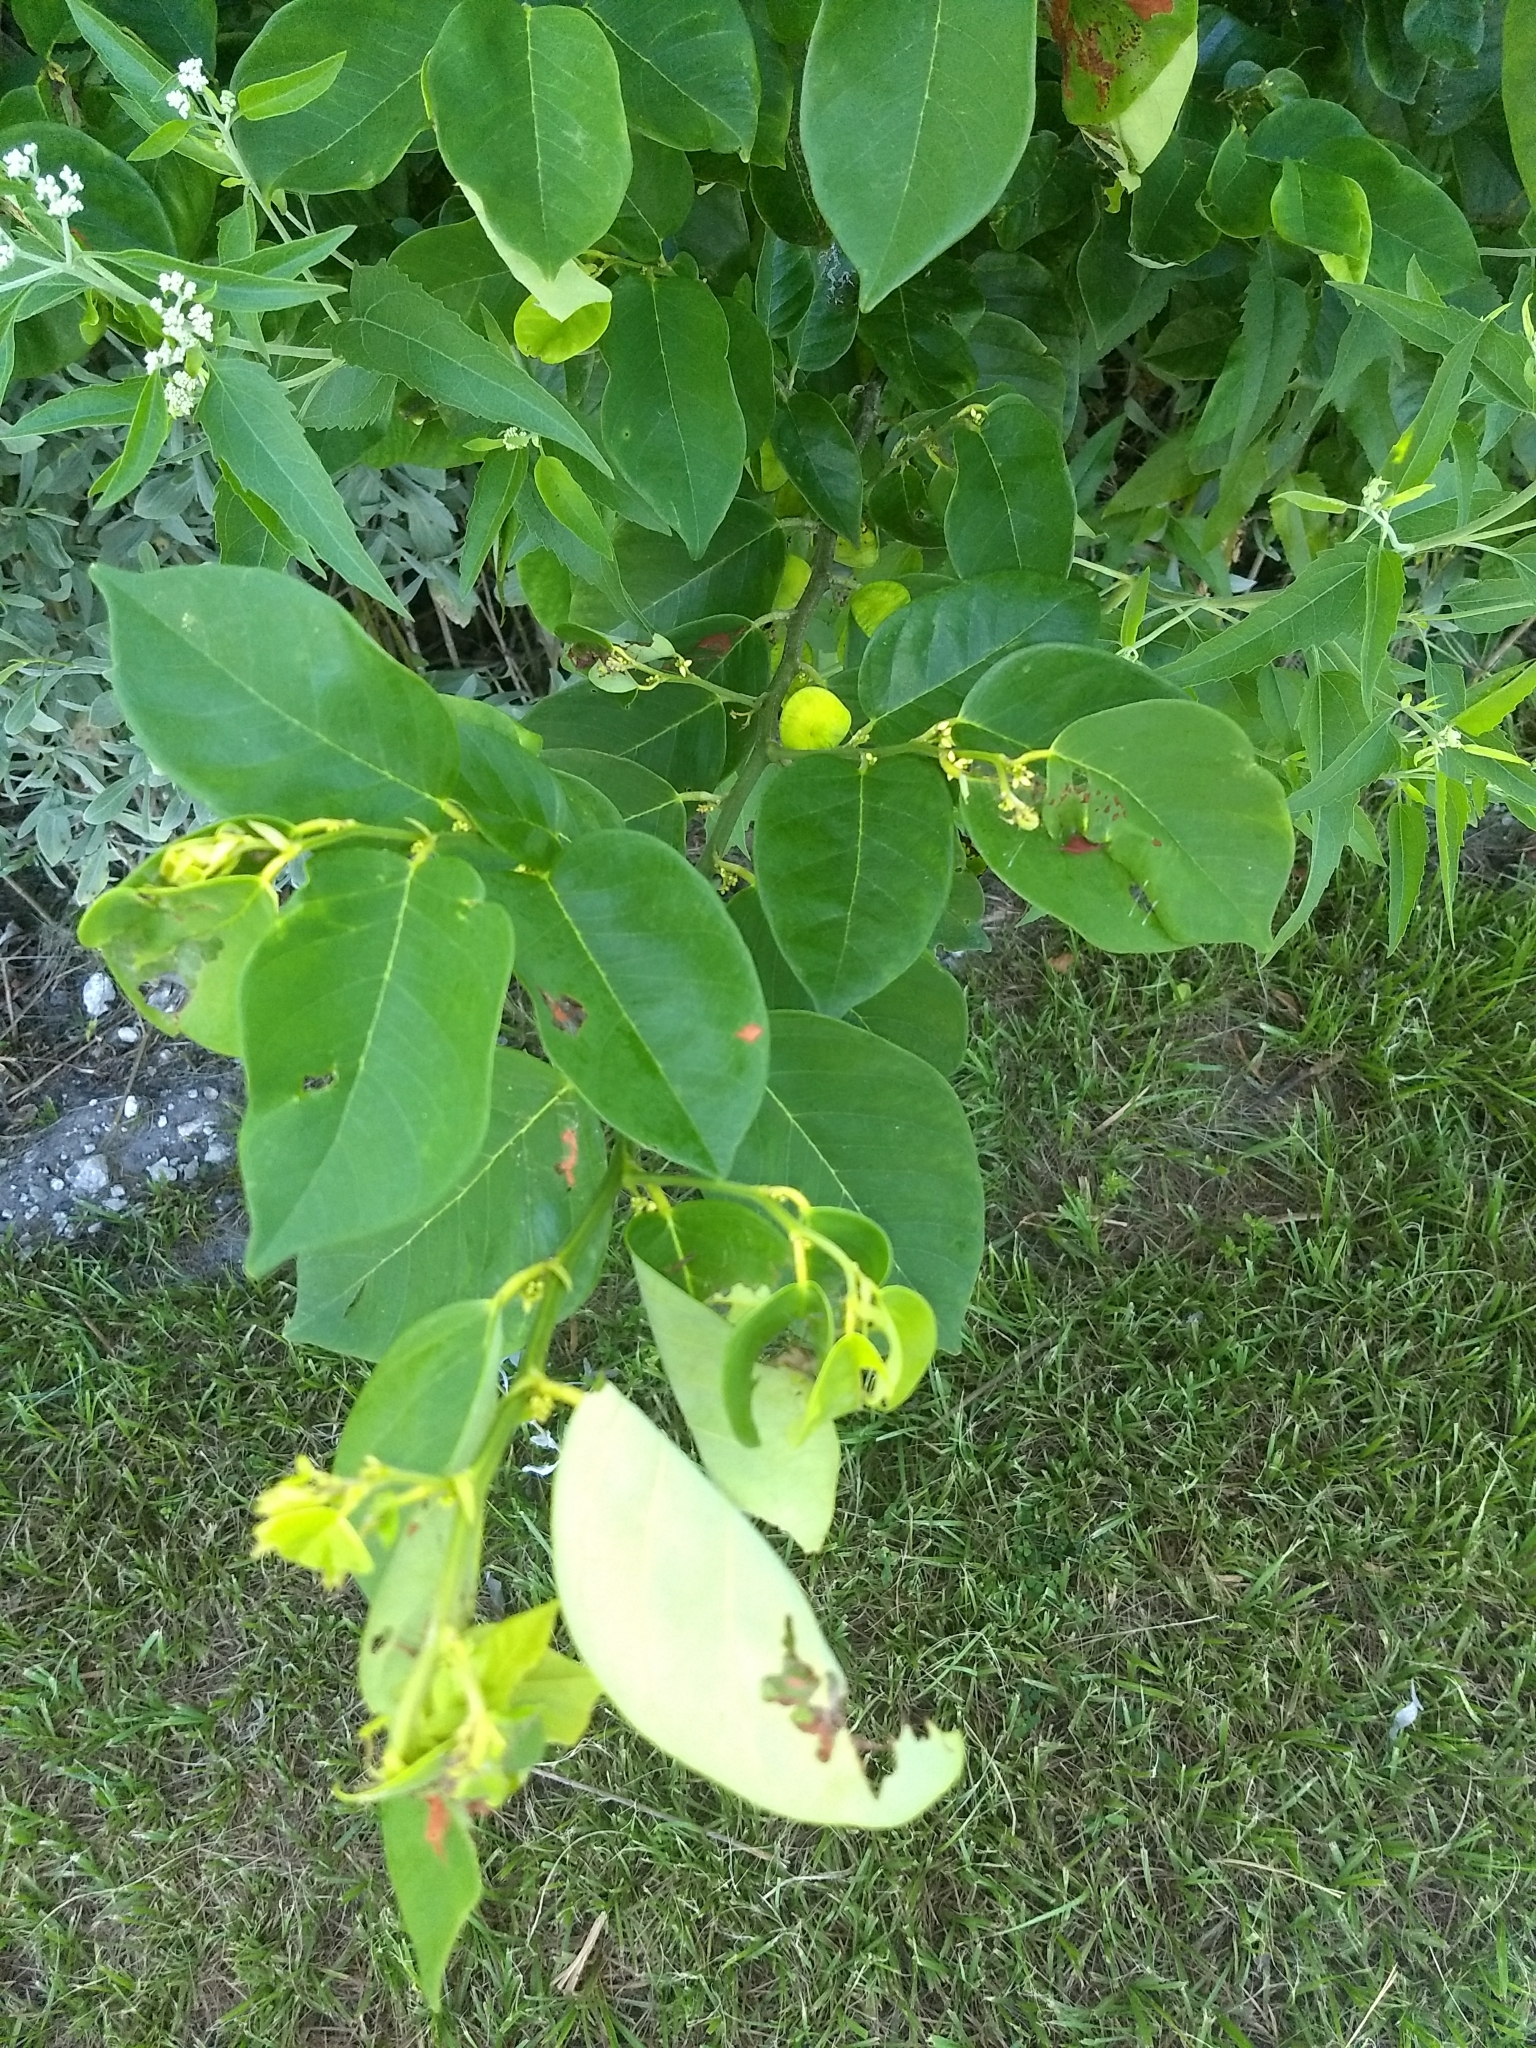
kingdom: Plantae
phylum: Tracheophyta
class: Magnoliopsida
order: Fabales
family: Fabaceae
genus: Dalbergia
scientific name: Dalbergia ecastaphyllum
